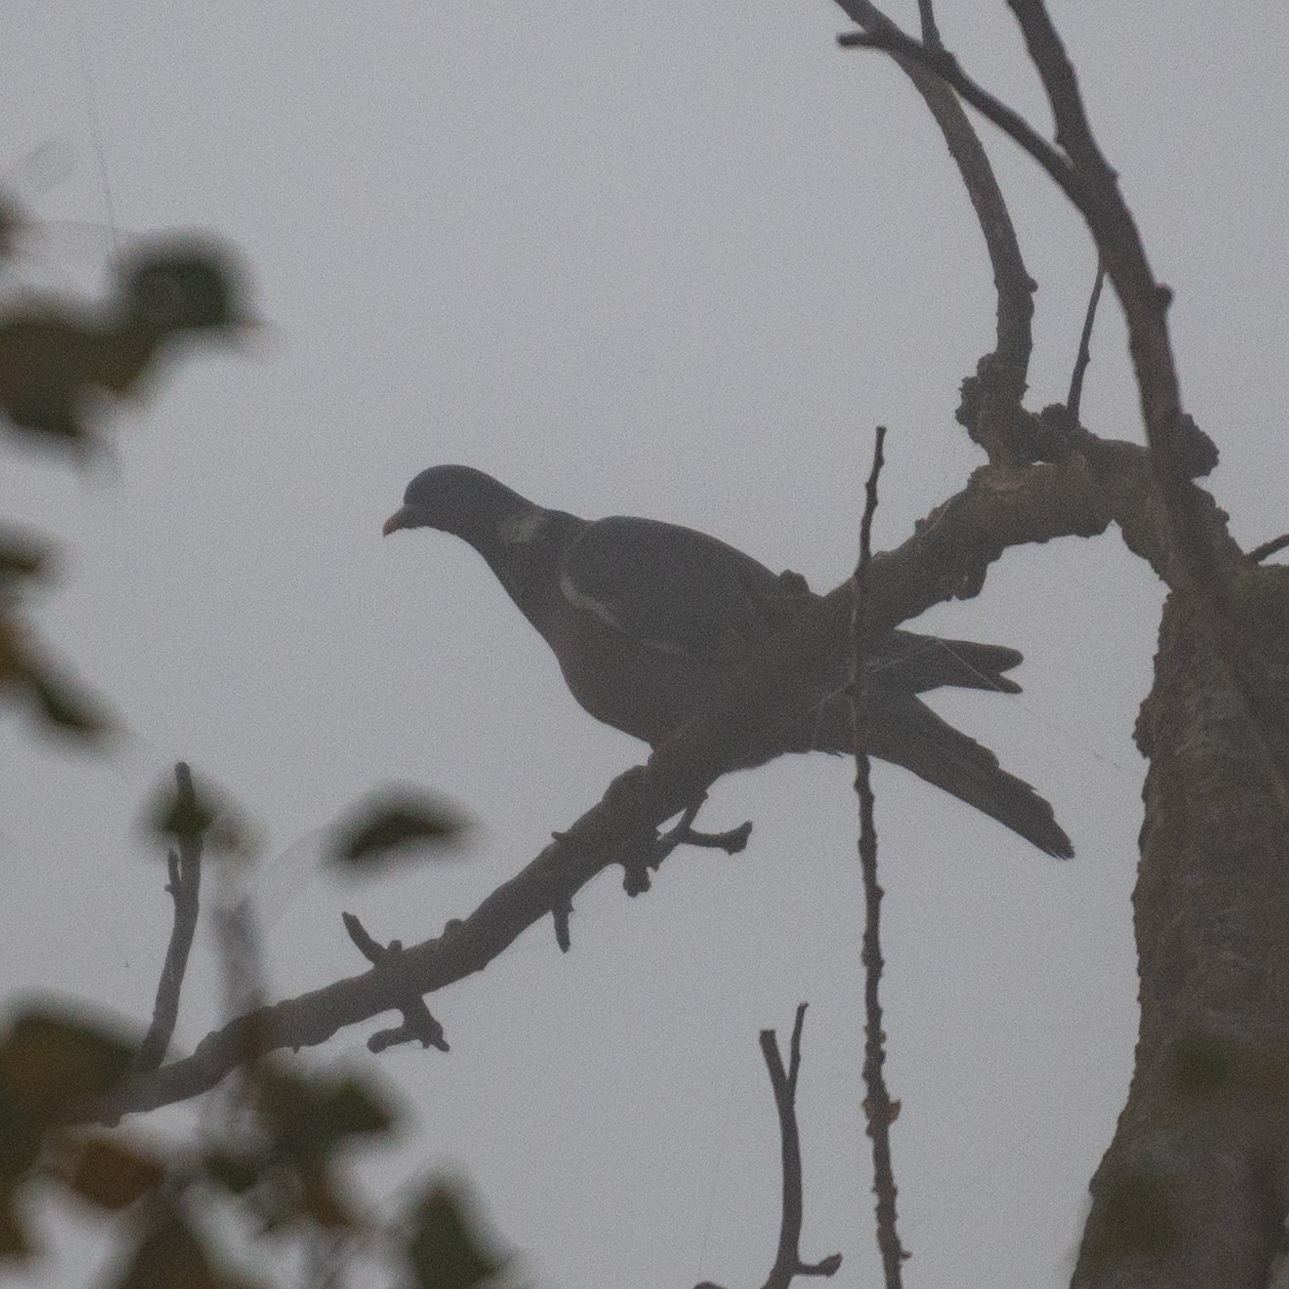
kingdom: Animalia
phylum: Chordata
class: Aves
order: Columbiformes
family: Columbidae
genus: Columba
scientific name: Columba palumbus
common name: Common wood pigeon
